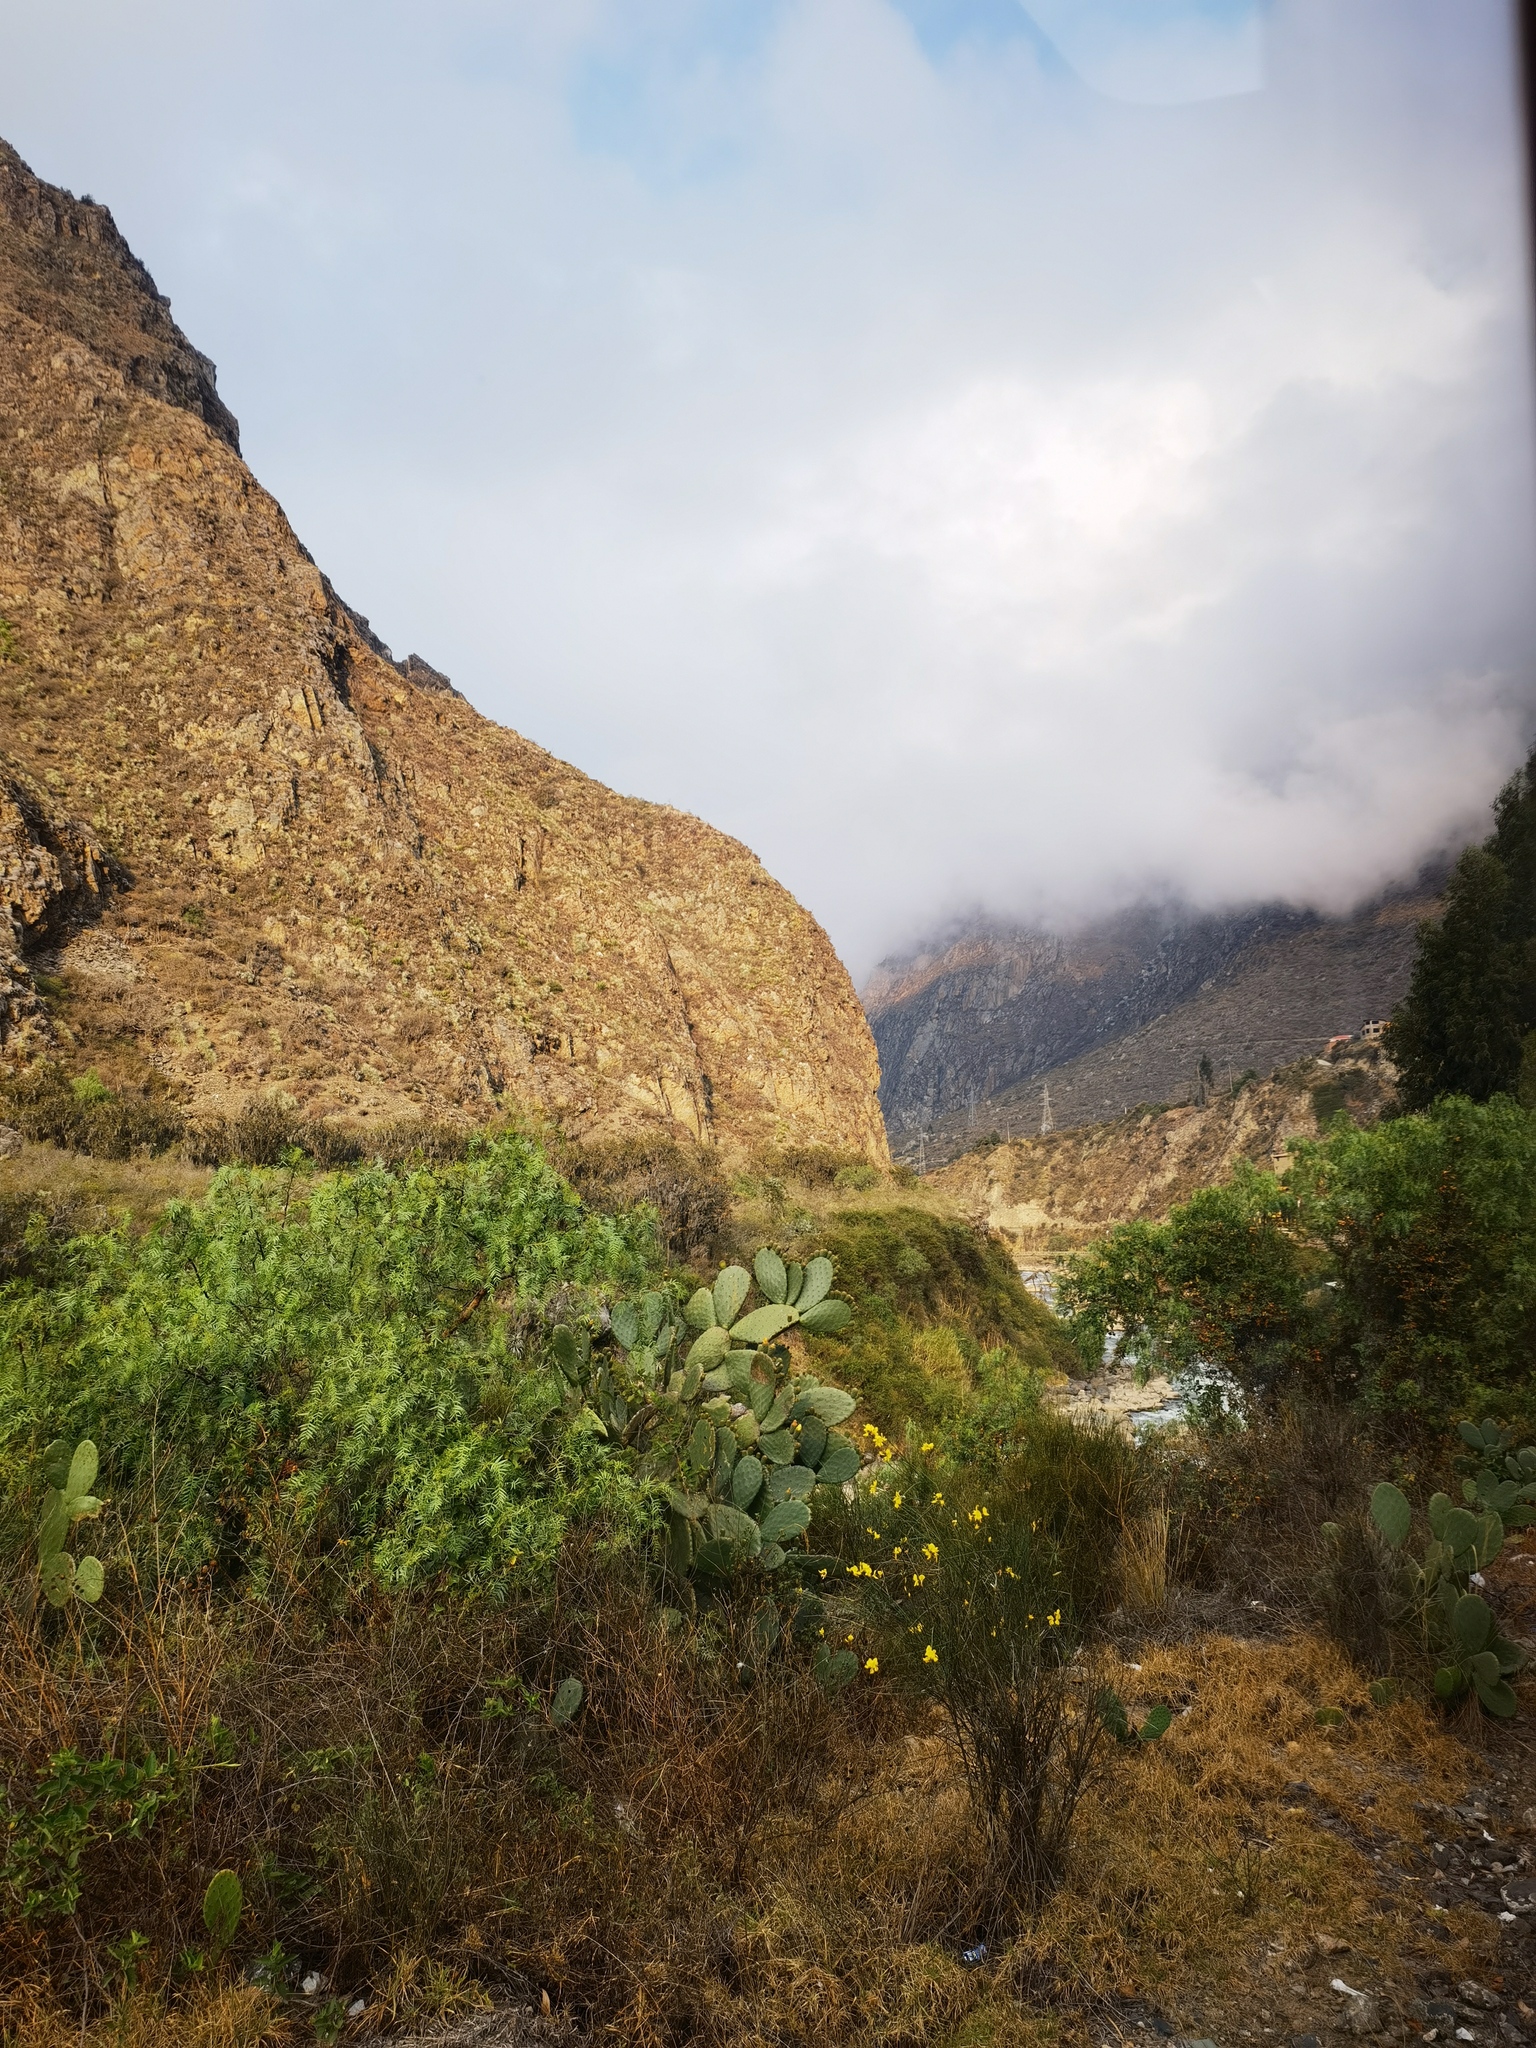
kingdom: Plantae
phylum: Tracheophyta
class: Magnoliopsida
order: Caryophyllales
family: Cactaceae
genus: Opuntia
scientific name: Opuntia ficus-indica
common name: Barbary fig
